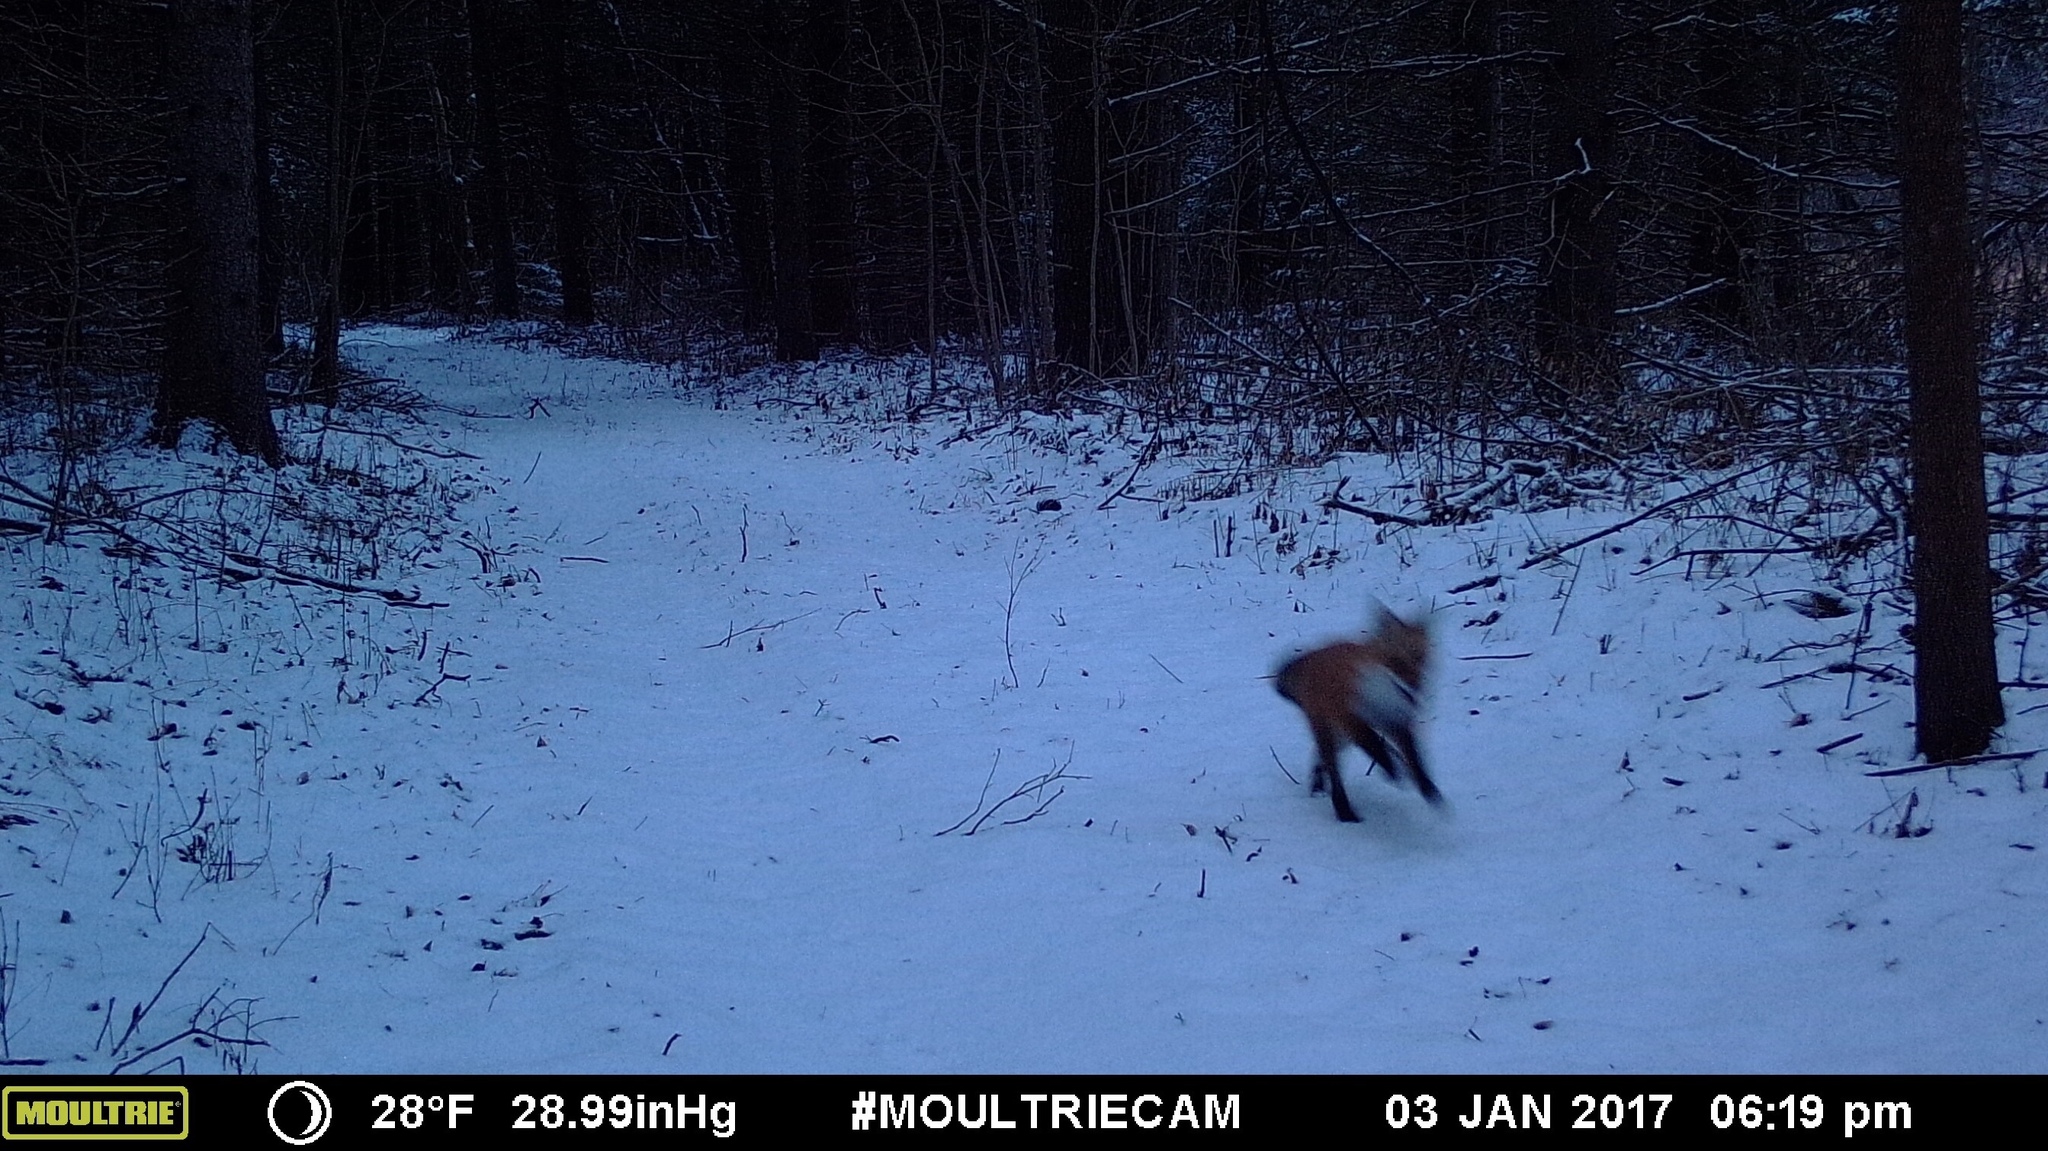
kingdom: Animalia
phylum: Chordata
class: Mammalia
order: Carnivora
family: Canidae
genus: Vulpes
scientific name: Vulpes vulpes
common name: Red fox
